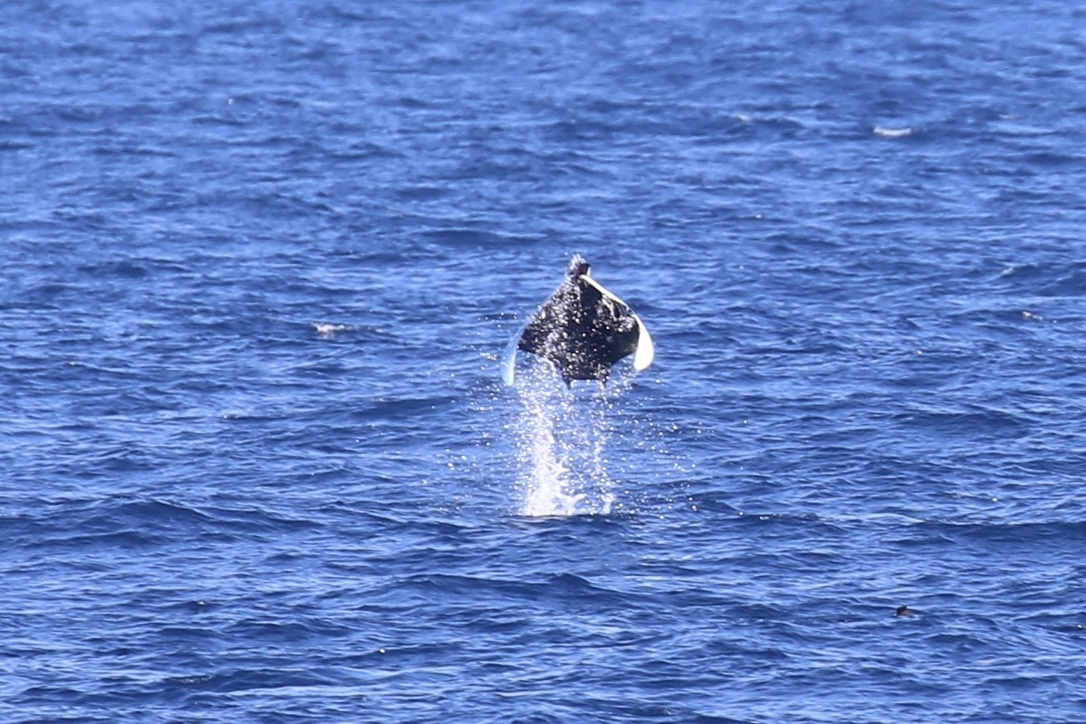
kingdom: Animalia
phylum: Chordata
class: Elasmobranchii
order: Myliobatiformes
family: Myliobatidae
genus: Mobula
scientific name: Mobula munkiana
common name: Pygmy devil ray
